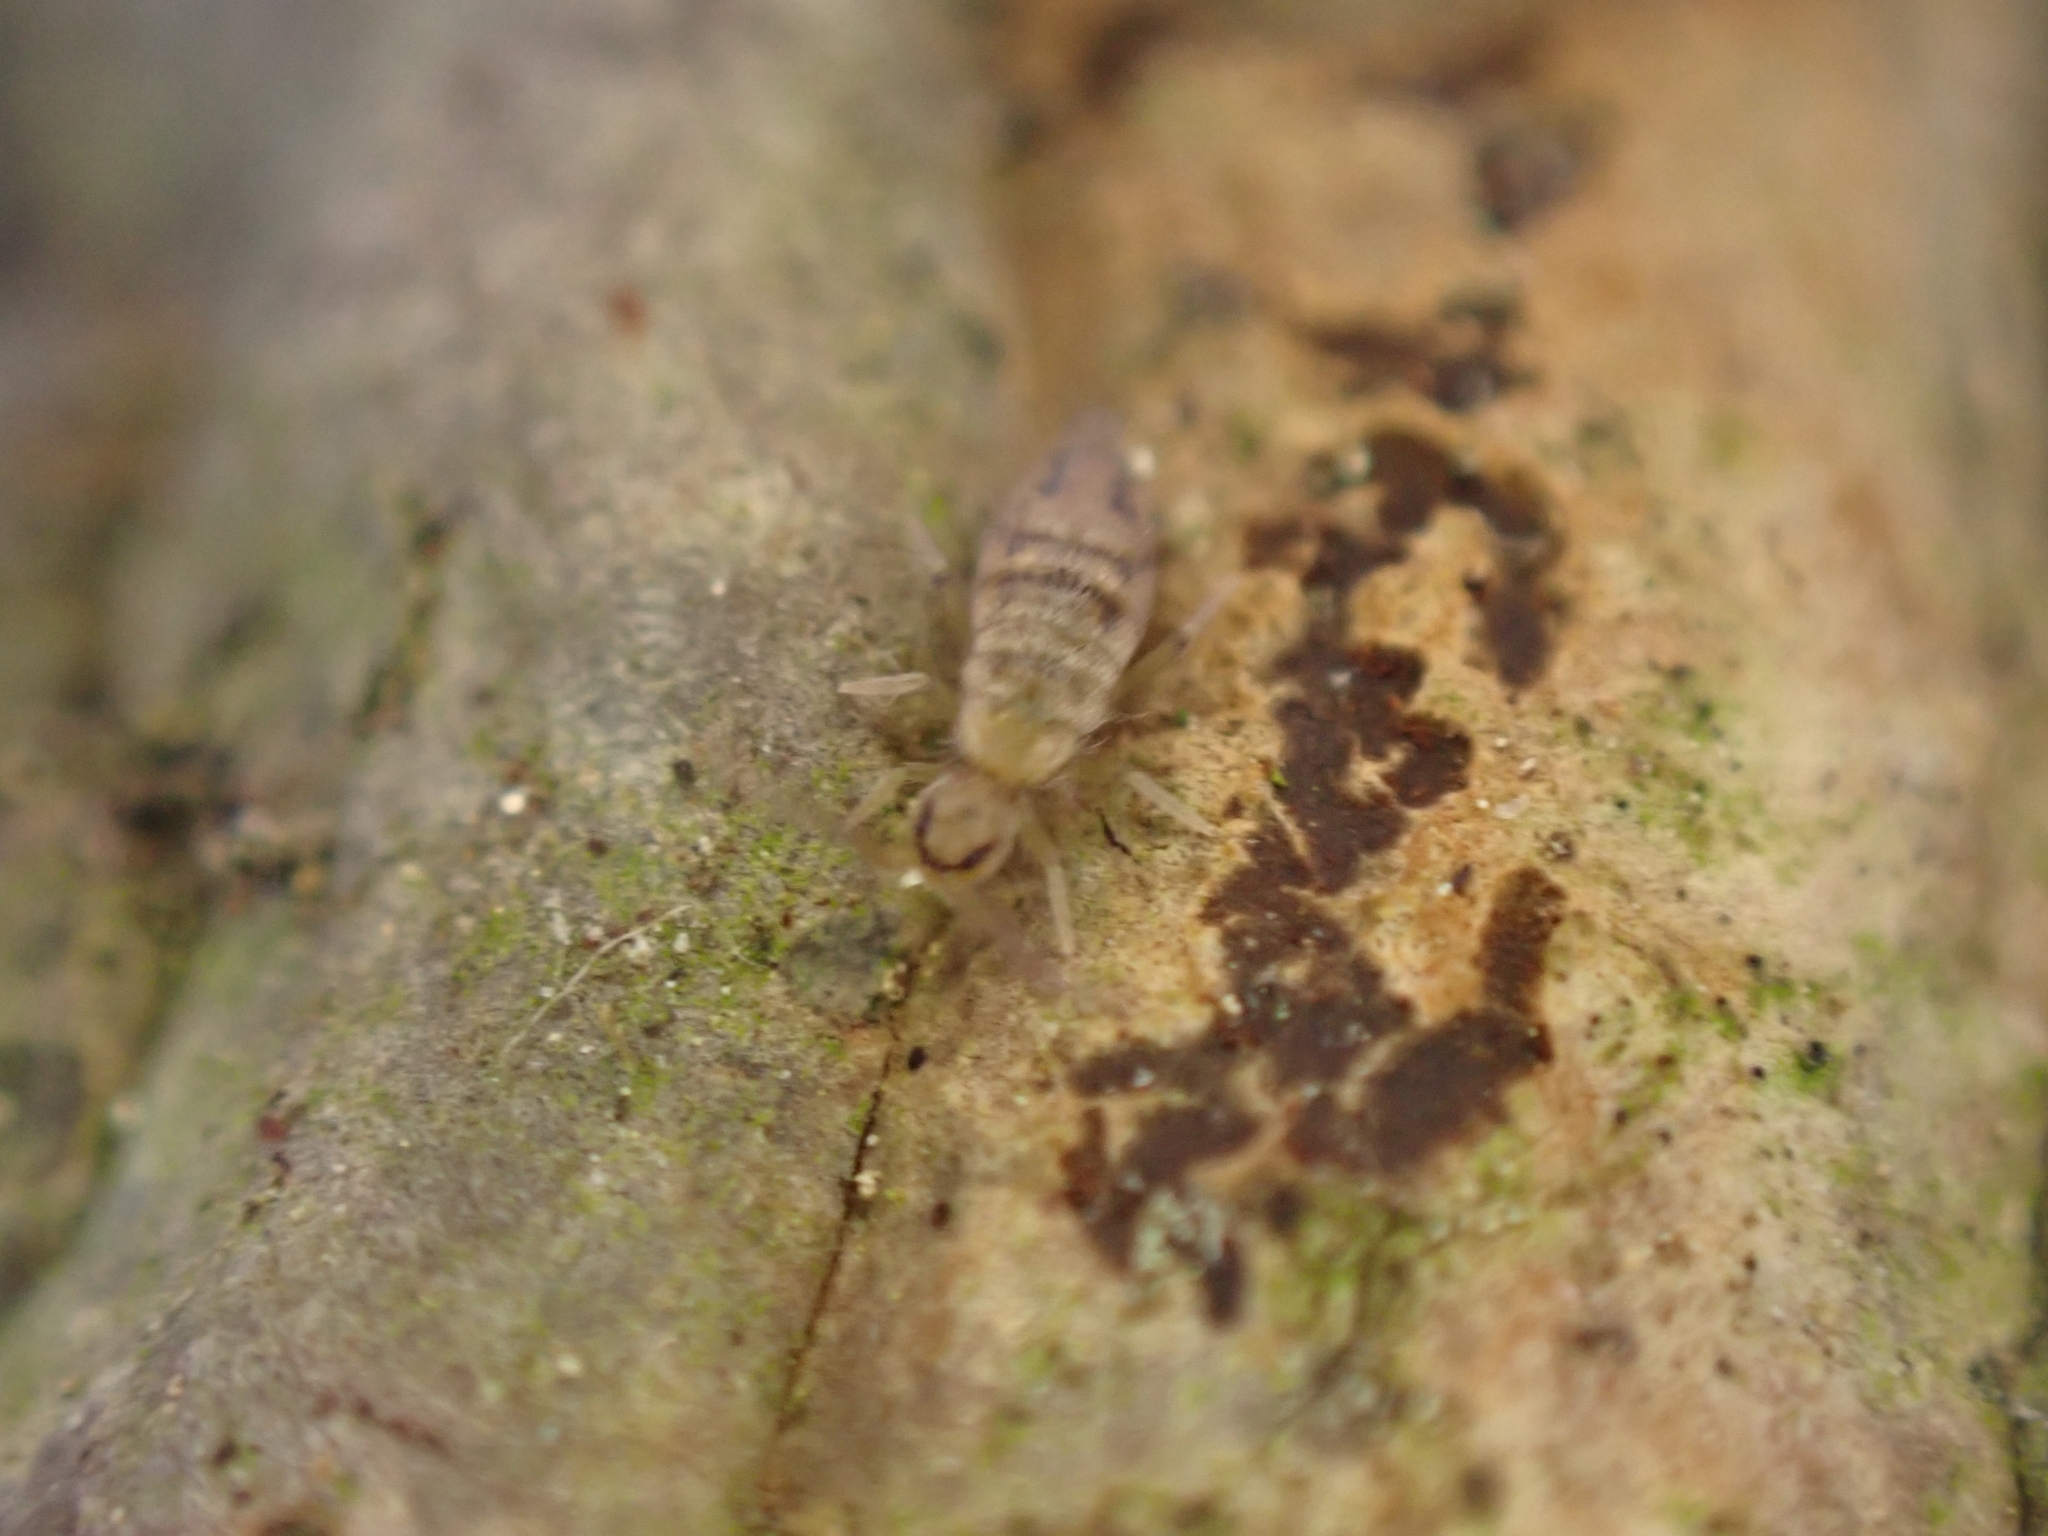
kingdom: Animalia
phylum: Arthropoda
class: Collembola
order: Entomobryomorpha
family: Entomobryidae
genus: Entomobrya
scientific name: Entomobrya nivalis
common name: Cosmopolitan springtail
